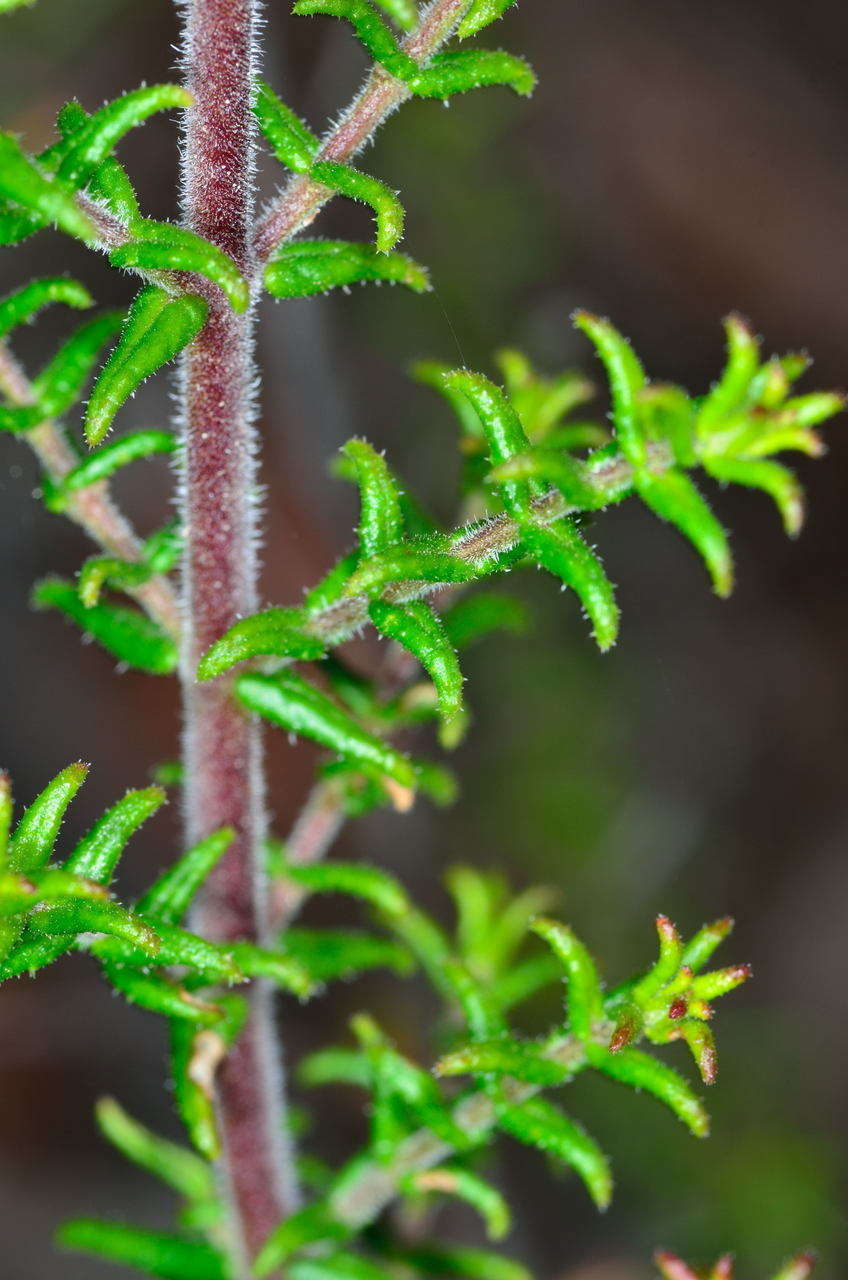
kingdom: Plantae
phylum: Tracheophyta
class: Magnoliopsida
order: Lamiales
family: Lamiaceae
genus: Prostanthera
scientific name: Prostanthera decussata
